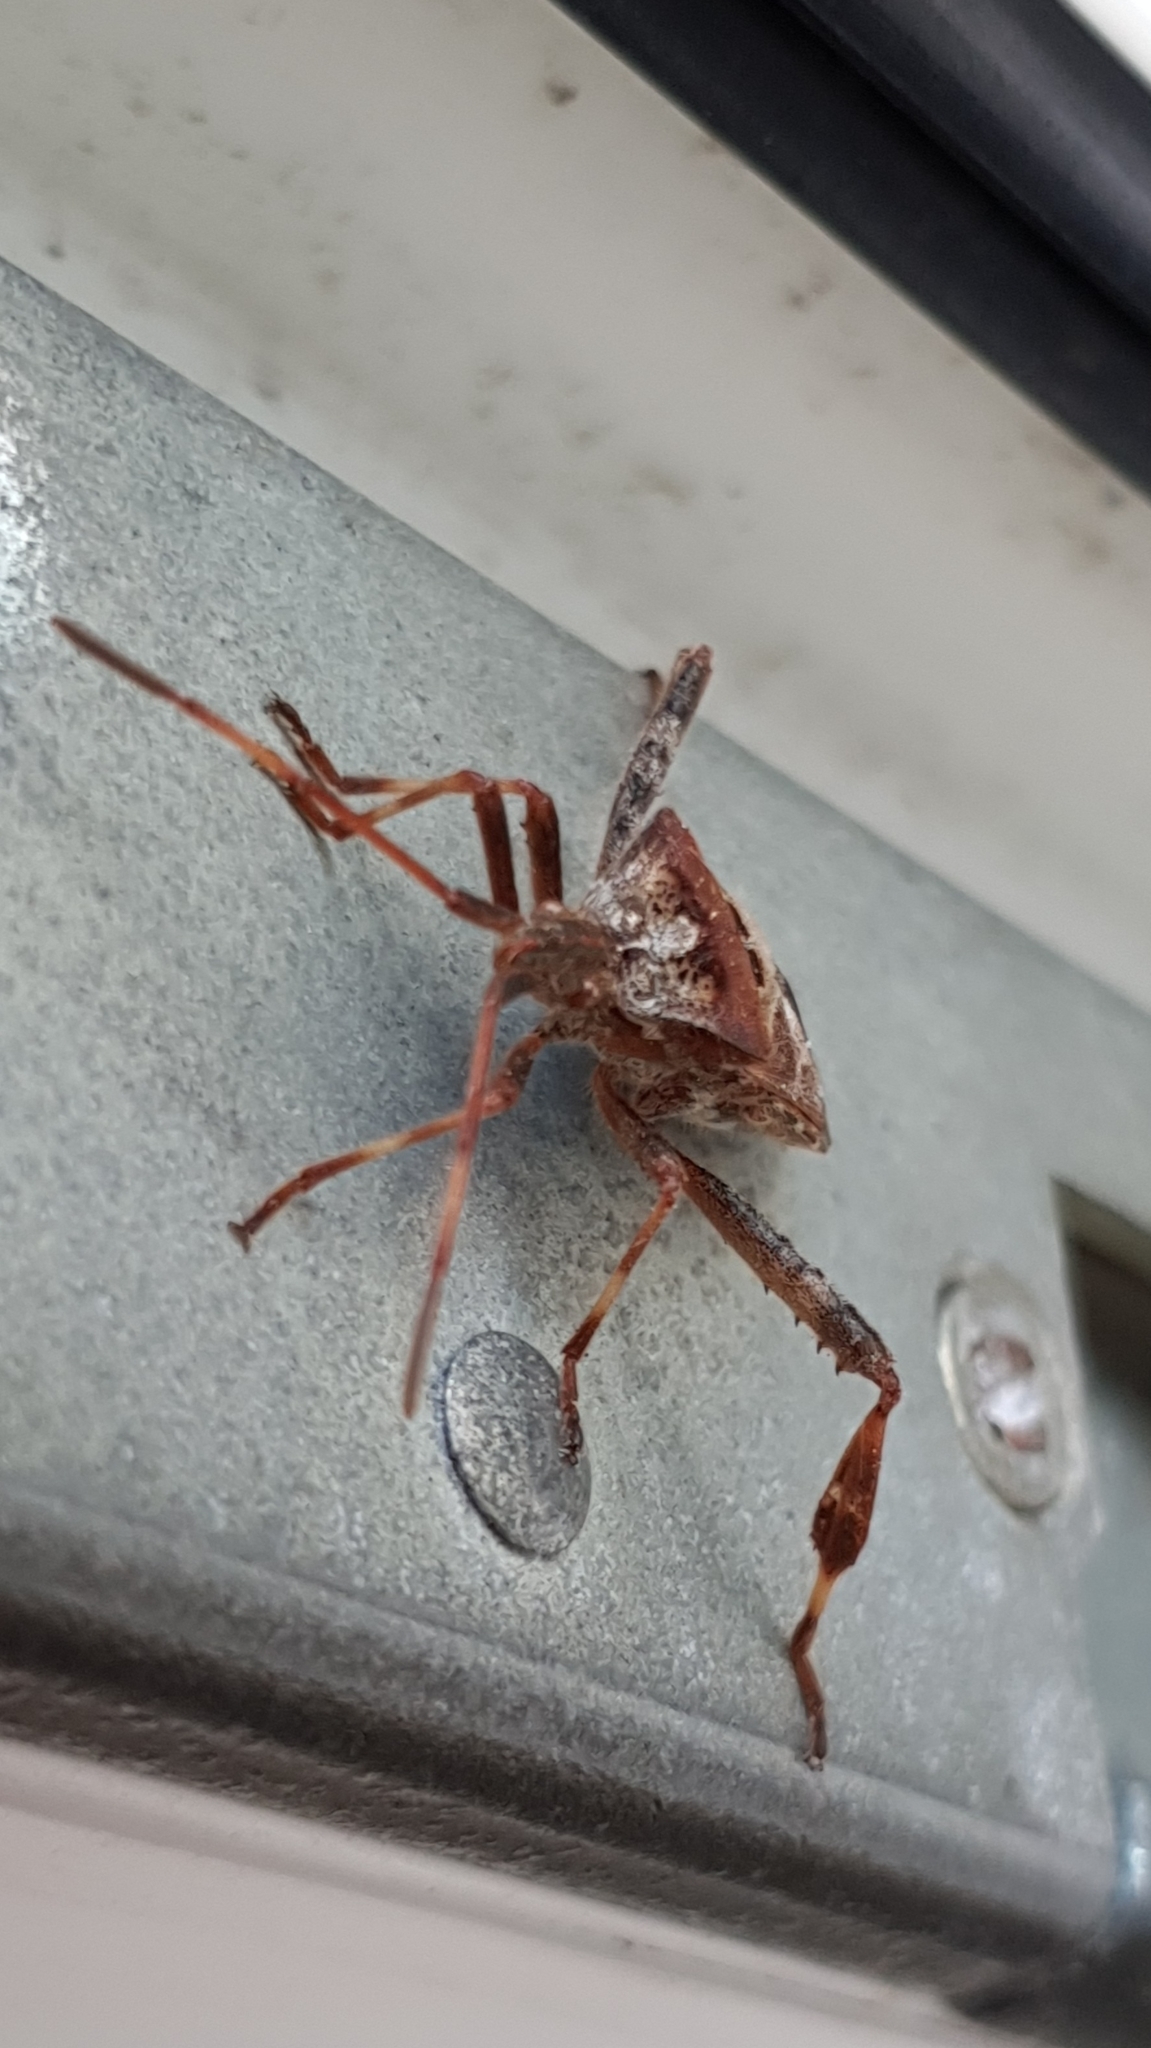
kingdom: Animalia
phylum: Arthropoda
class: Insecta
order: Hemiptera
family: Coreidae
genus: Leptoglossus
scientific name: Leptoglossus occidentalis
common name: Western conifer-seed bug
